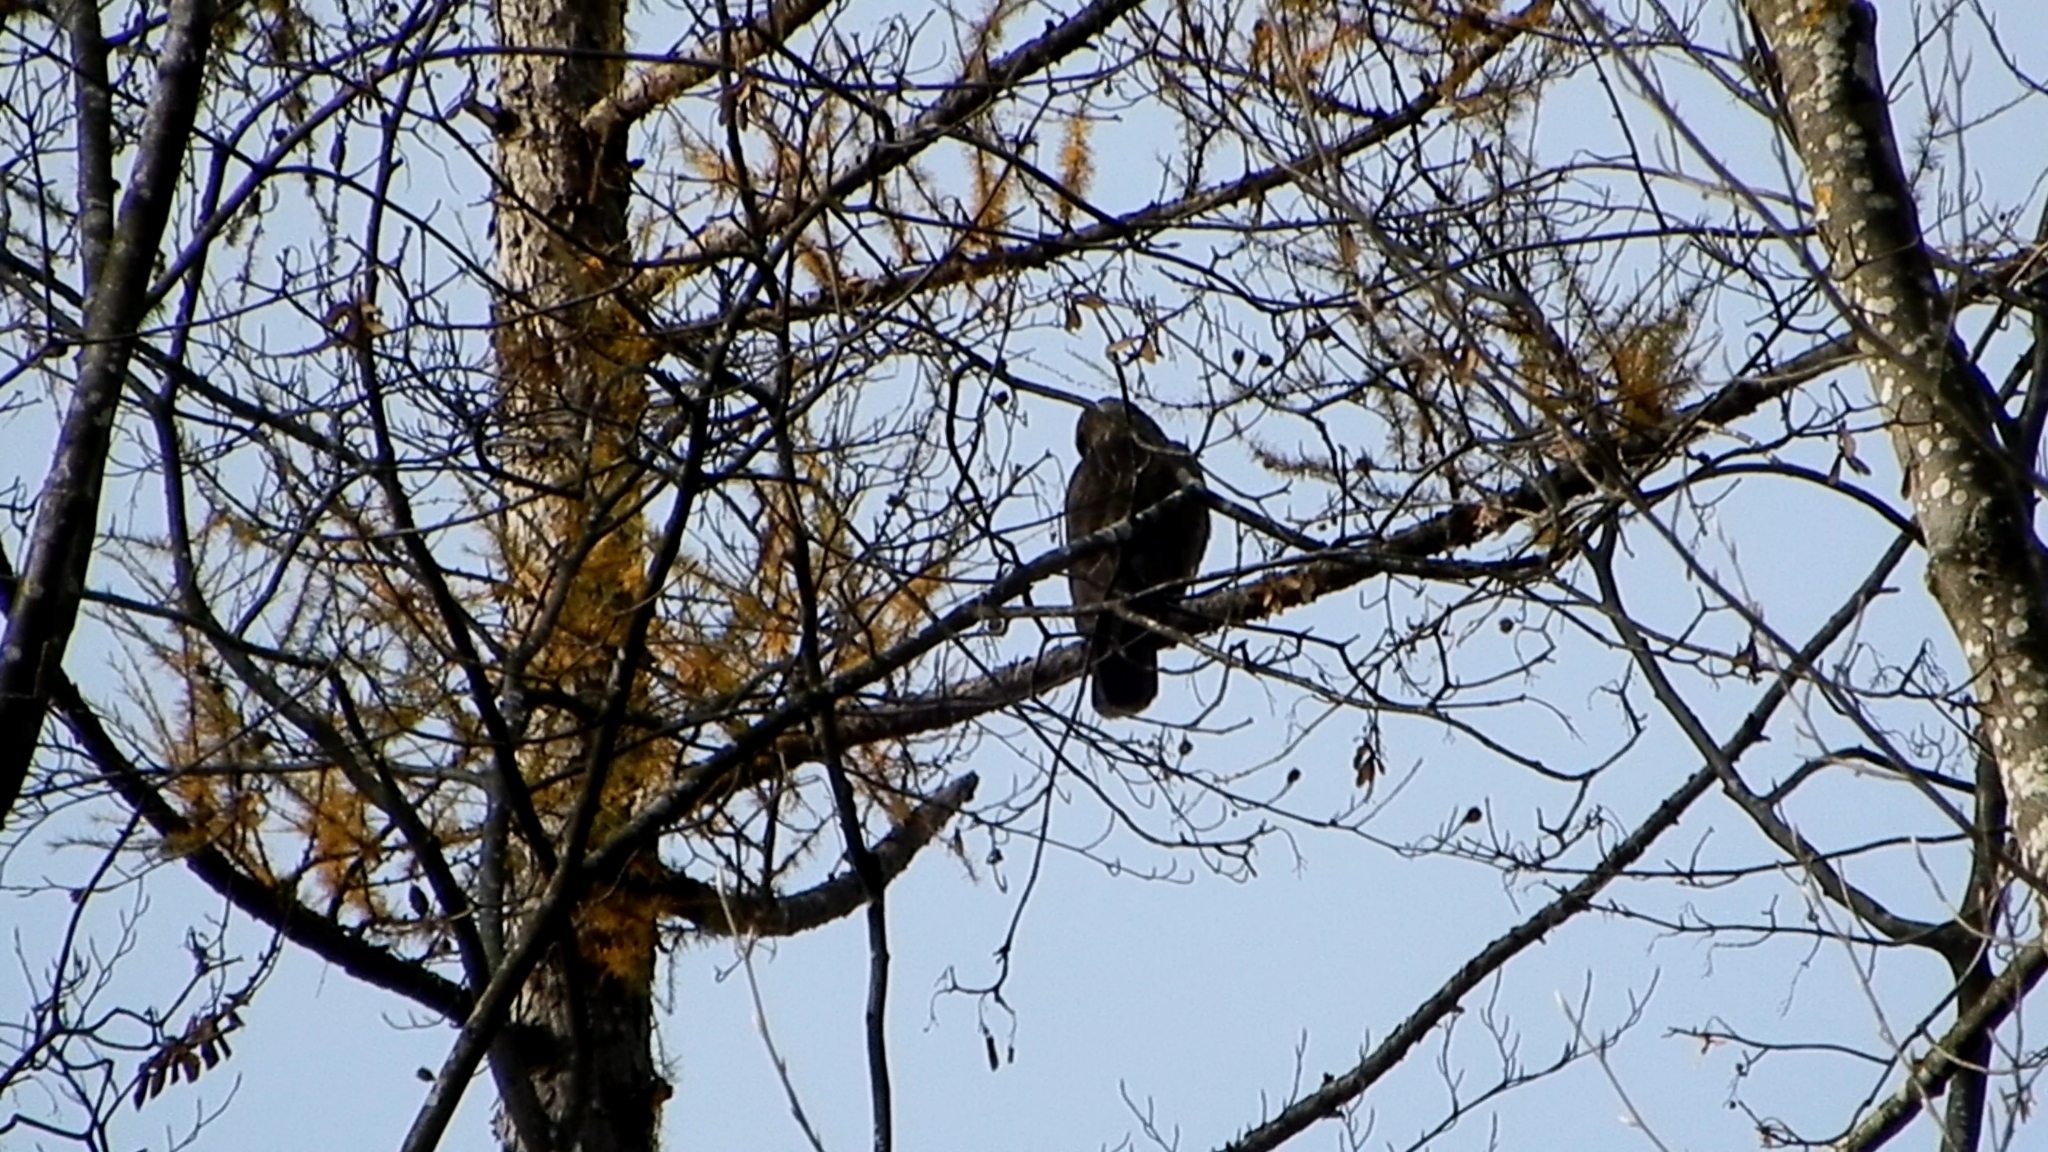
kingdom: Animalia
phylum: Chordata
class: Aves
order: Accipitriformes
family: Accipitridae
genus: Buteo
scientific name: Buteo buteo
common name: Common buzzard
